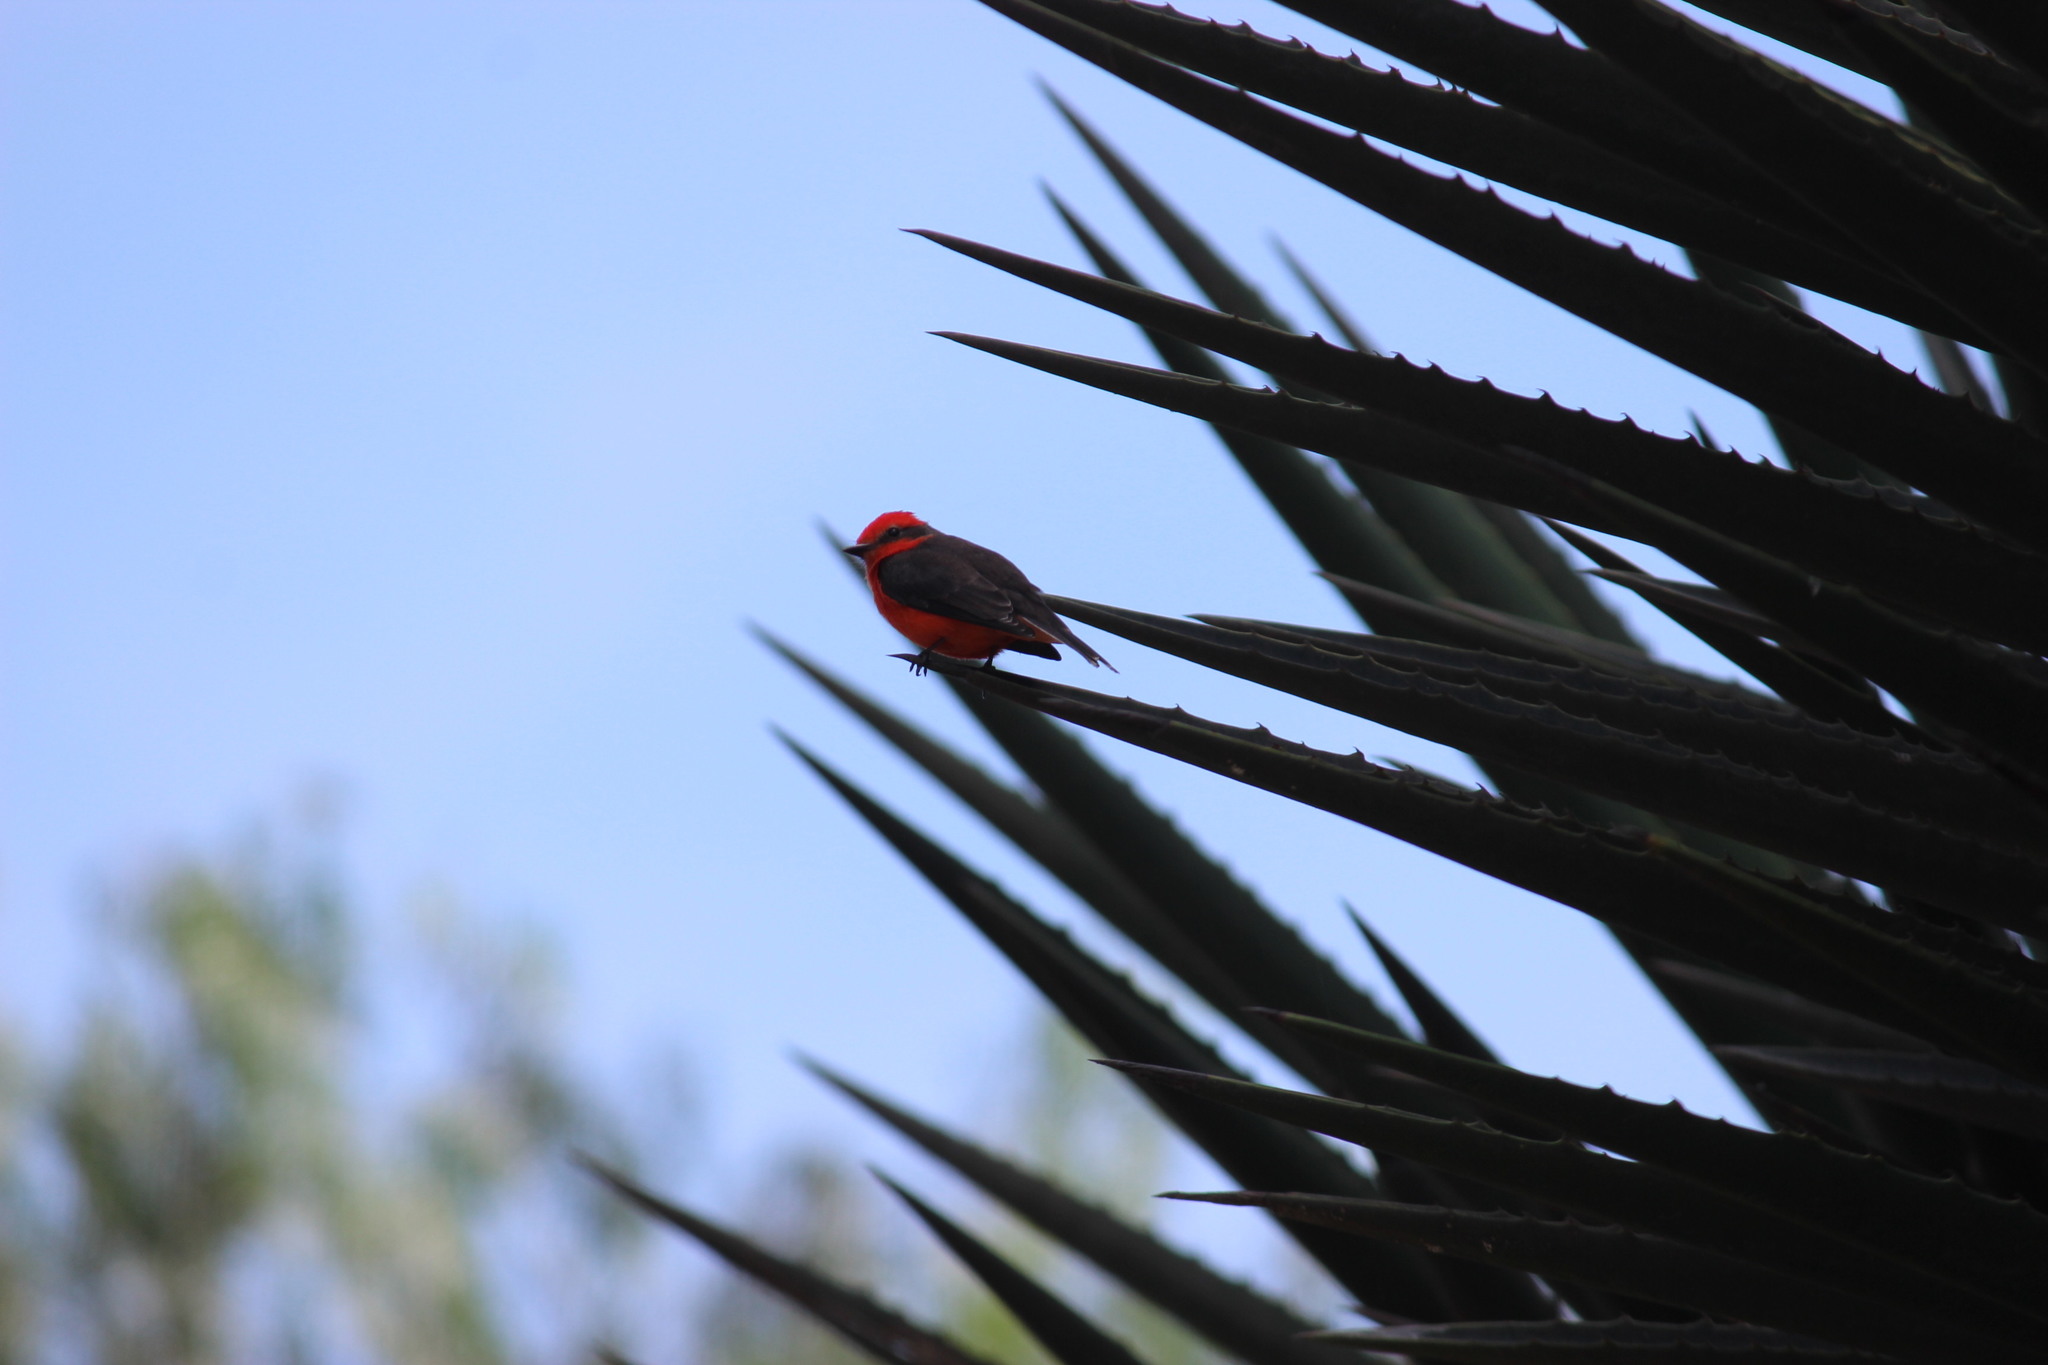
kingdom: Animalia
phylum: Chordata
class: Aves
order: Passeriformes
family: Tyrannidae
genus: Pyrocephalus
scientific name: Pyrocephalus rubinus
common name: Vermilion flycatcher
